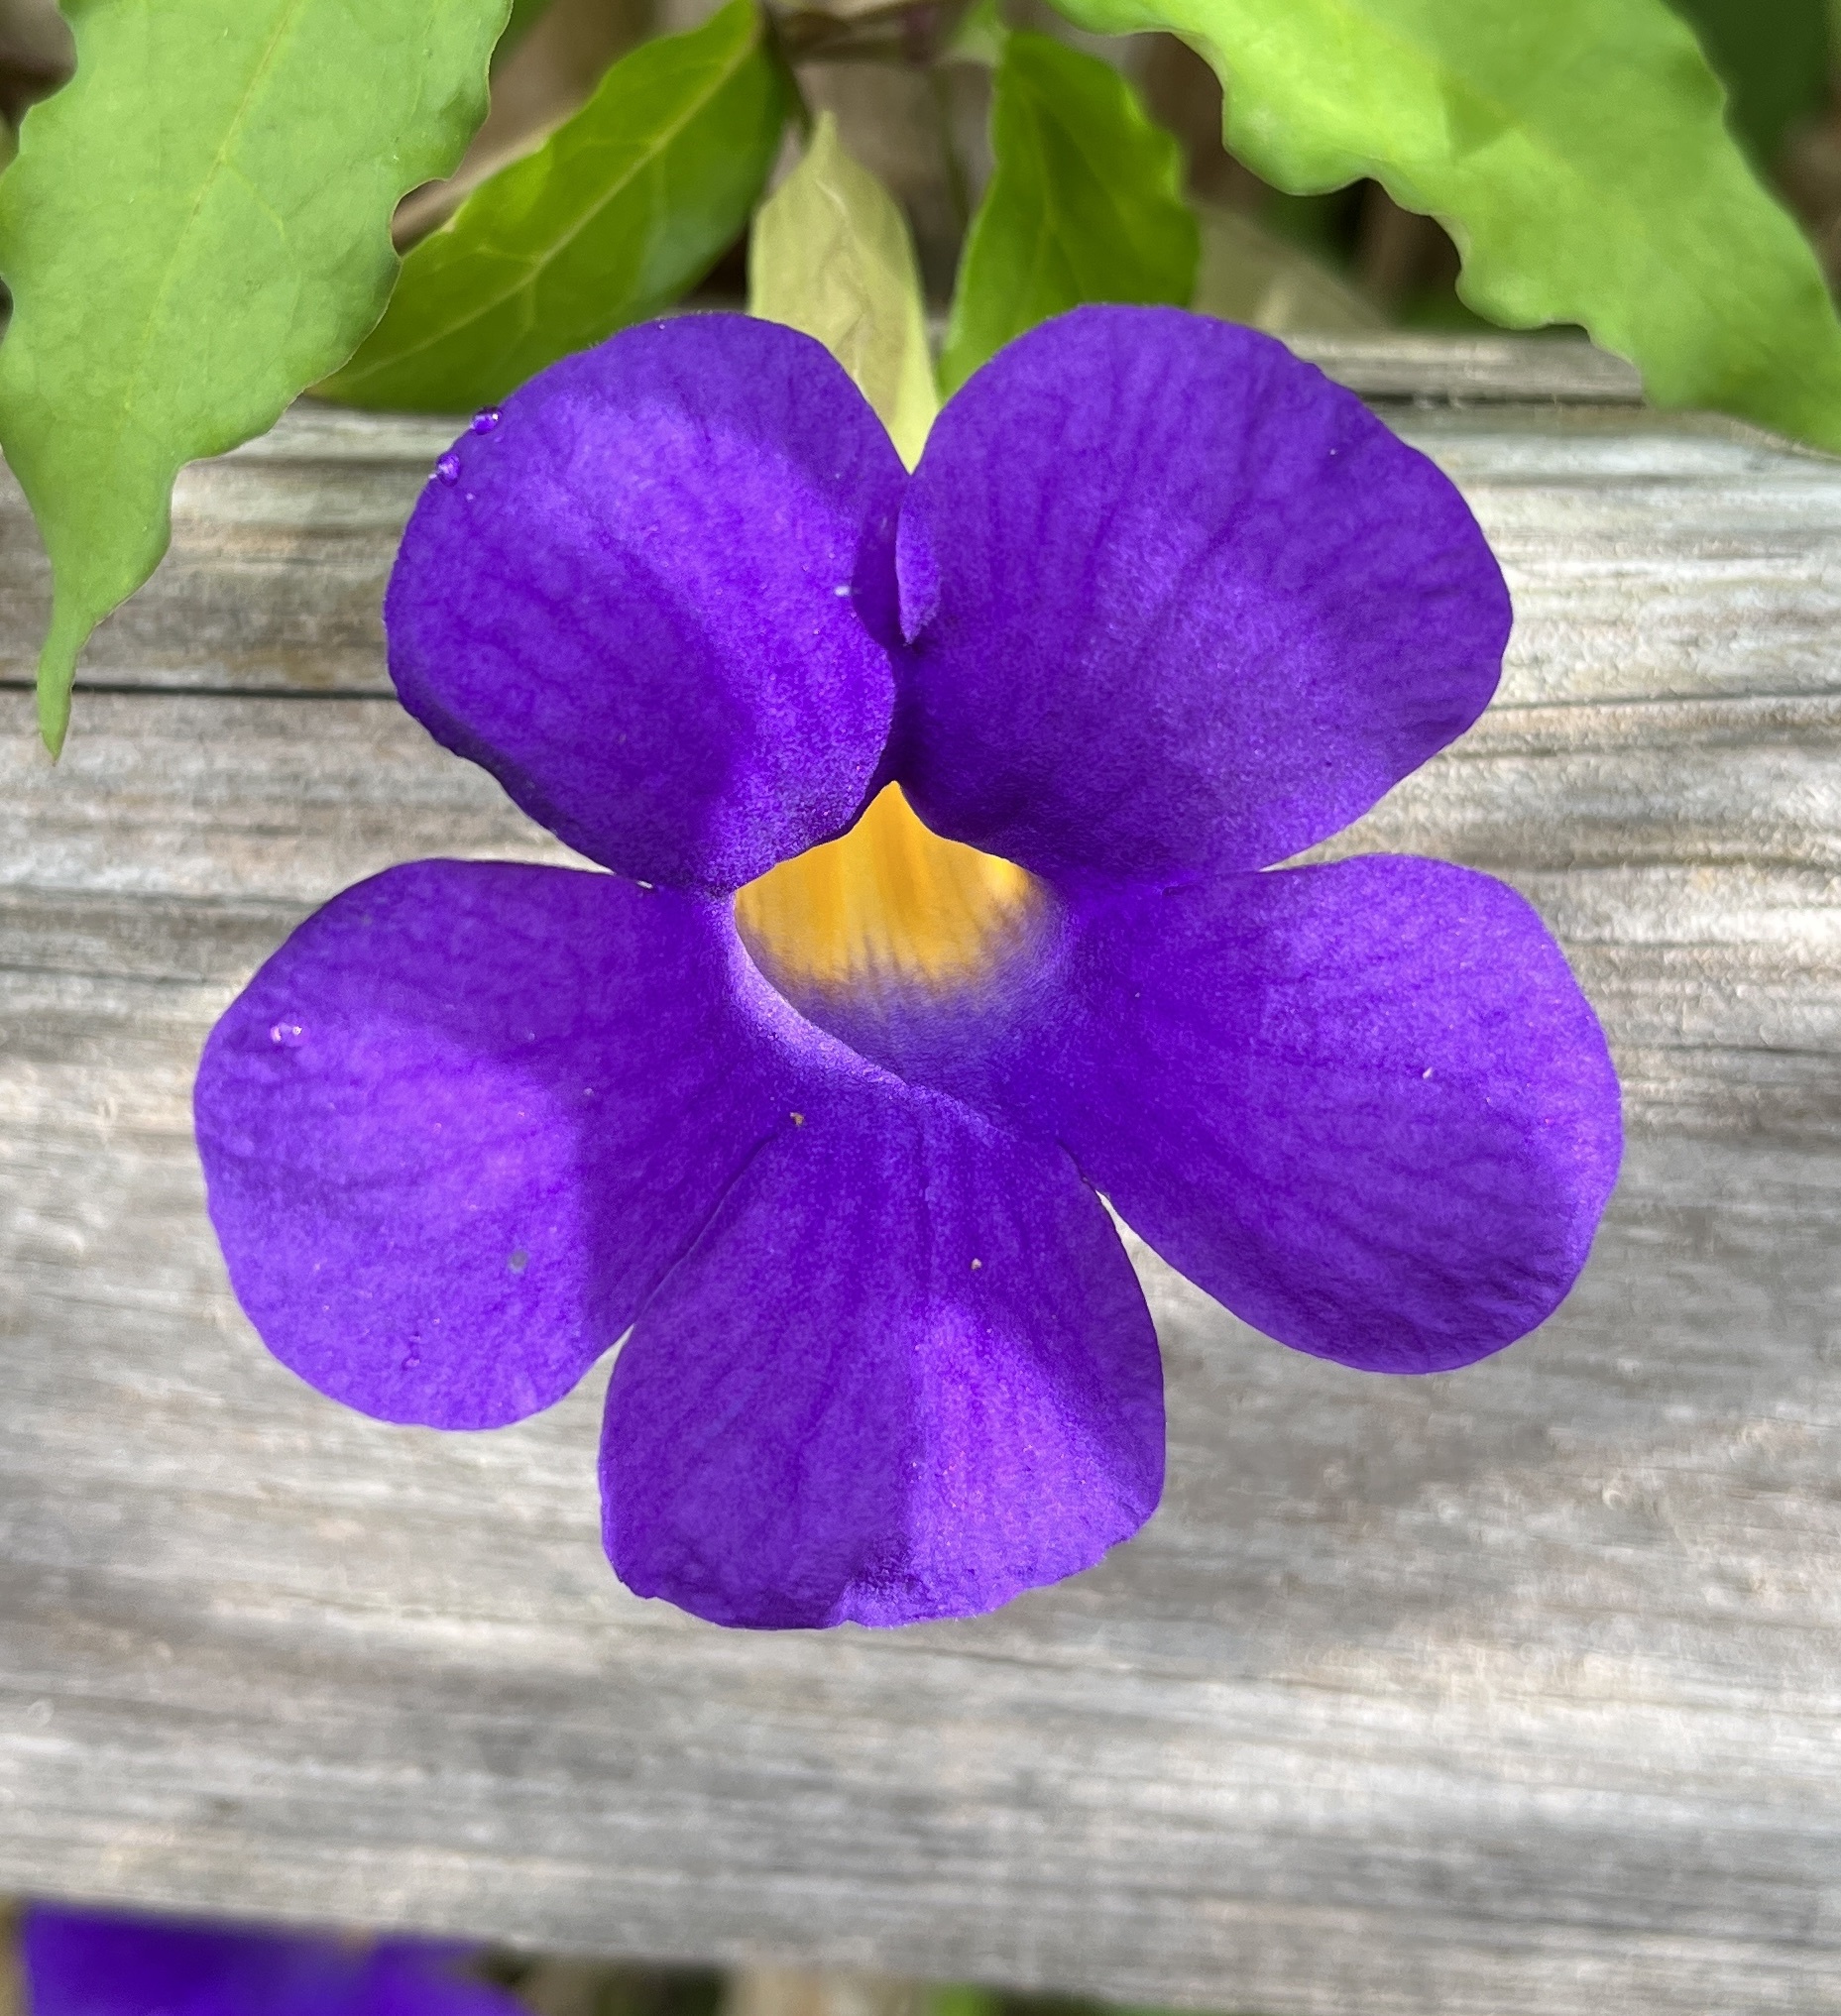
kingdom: Plantae
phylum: Tracheophyta
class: Magnoliopsida
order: Lamiales
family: Acanthaceae
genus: Thunbergia
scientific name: Thunbergia erecta
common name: Bush clockvine
